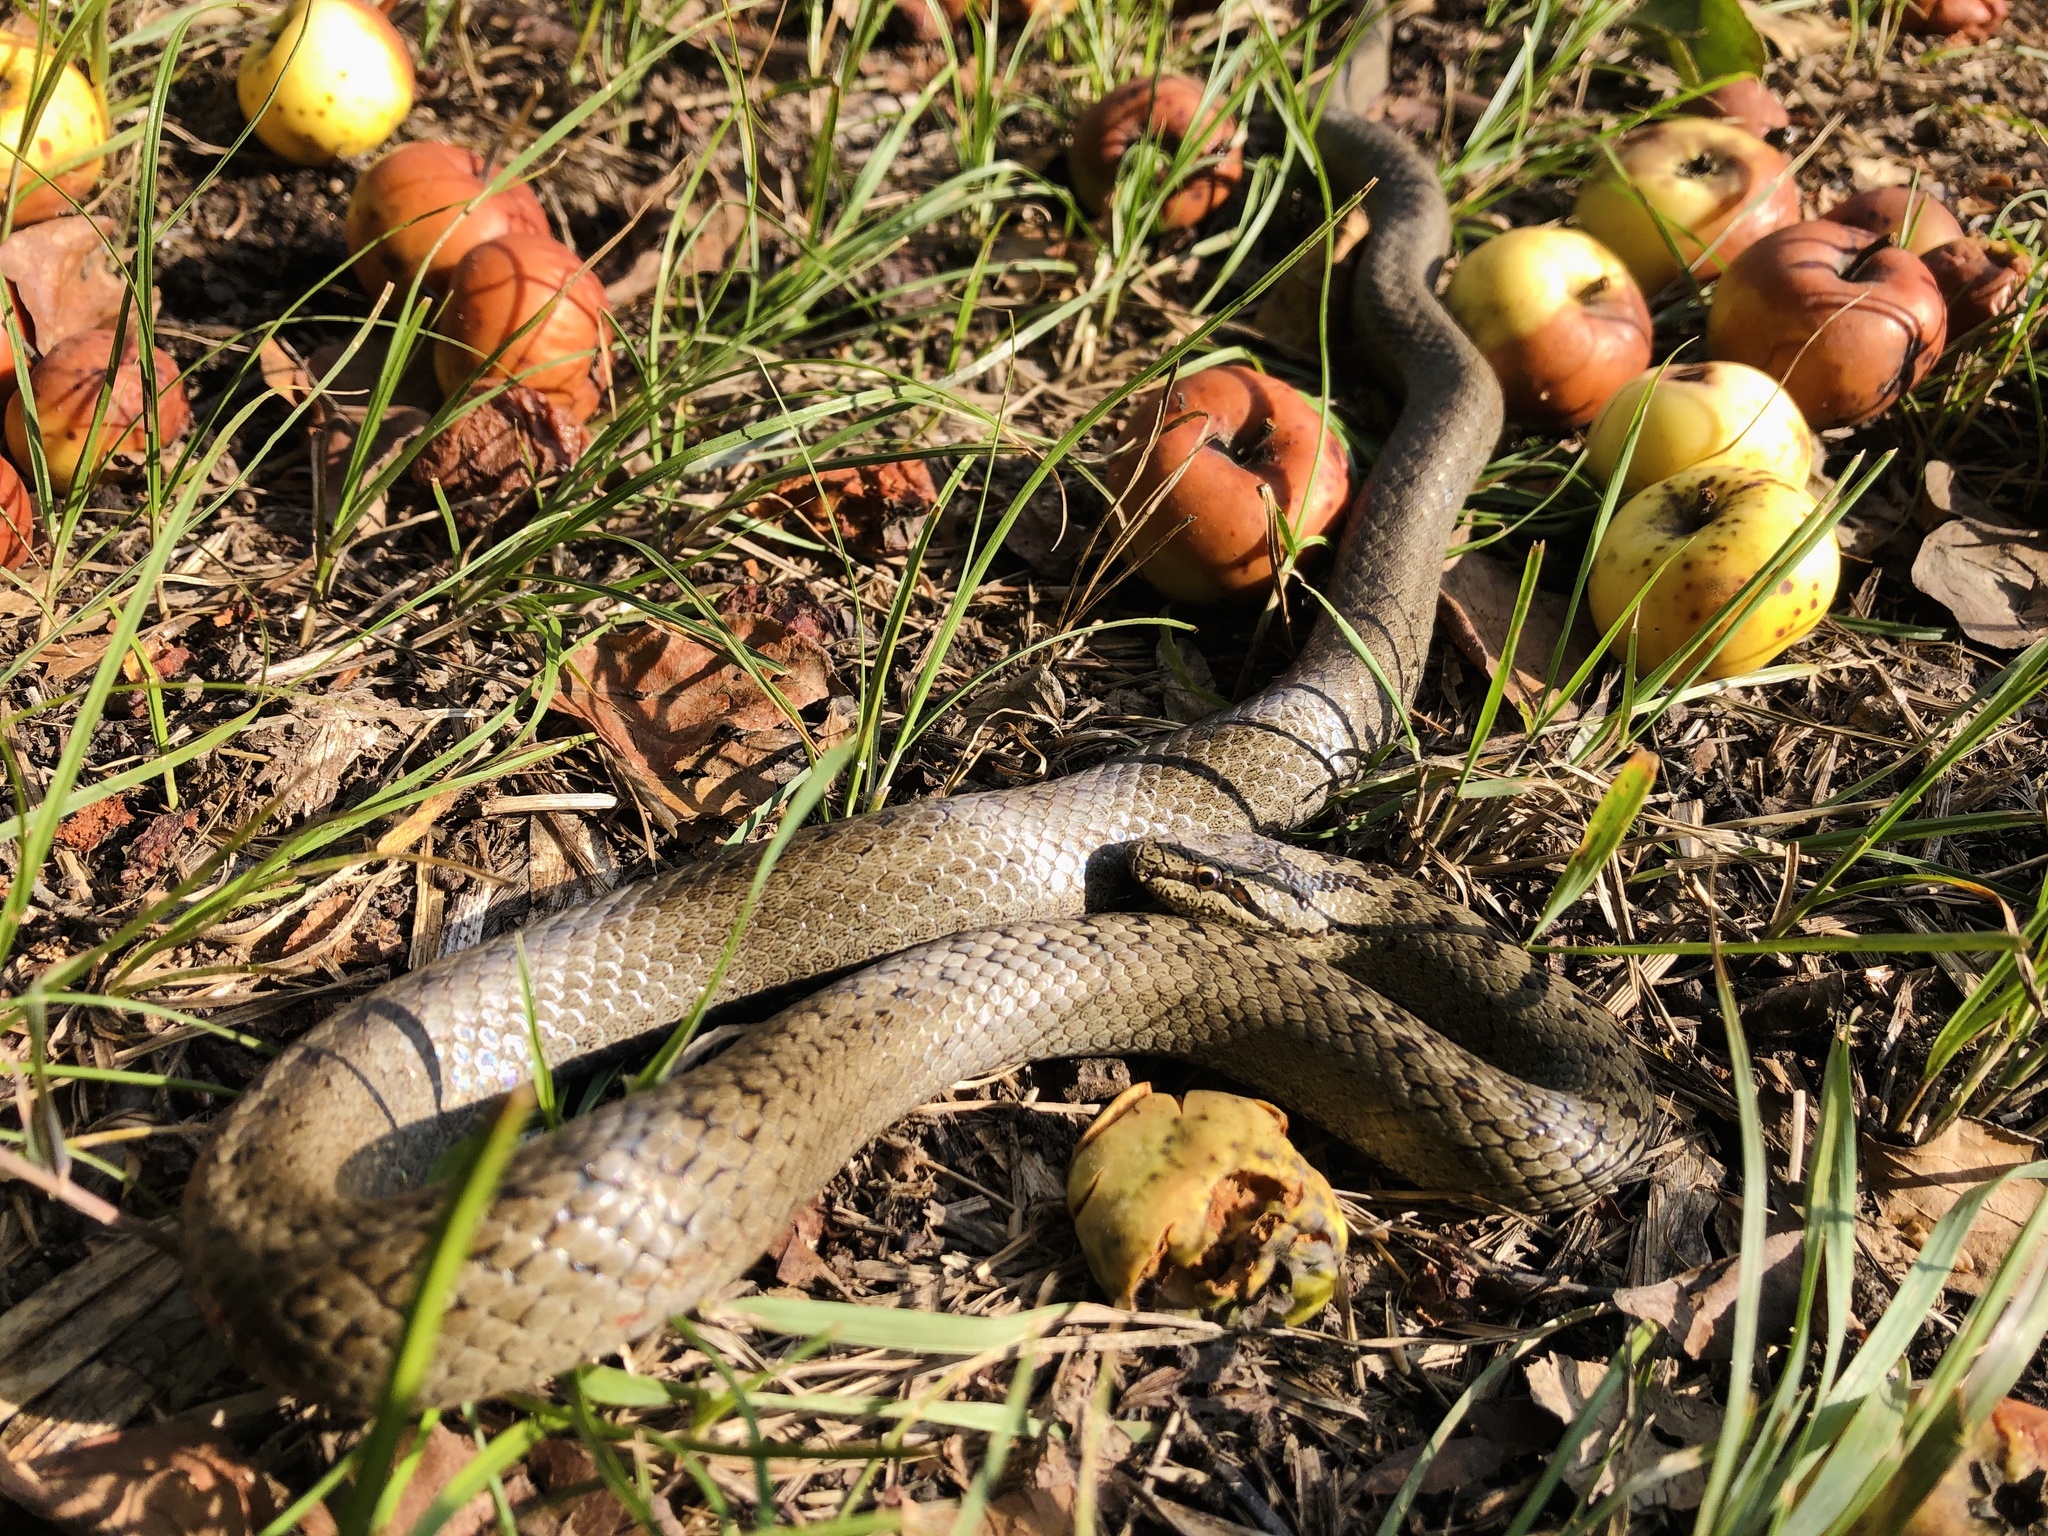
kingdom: Animalia
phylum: Chordata
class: Squamata
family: Colubridae
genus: Coronella
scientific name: Coronella austriaca
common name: Smooth snake
